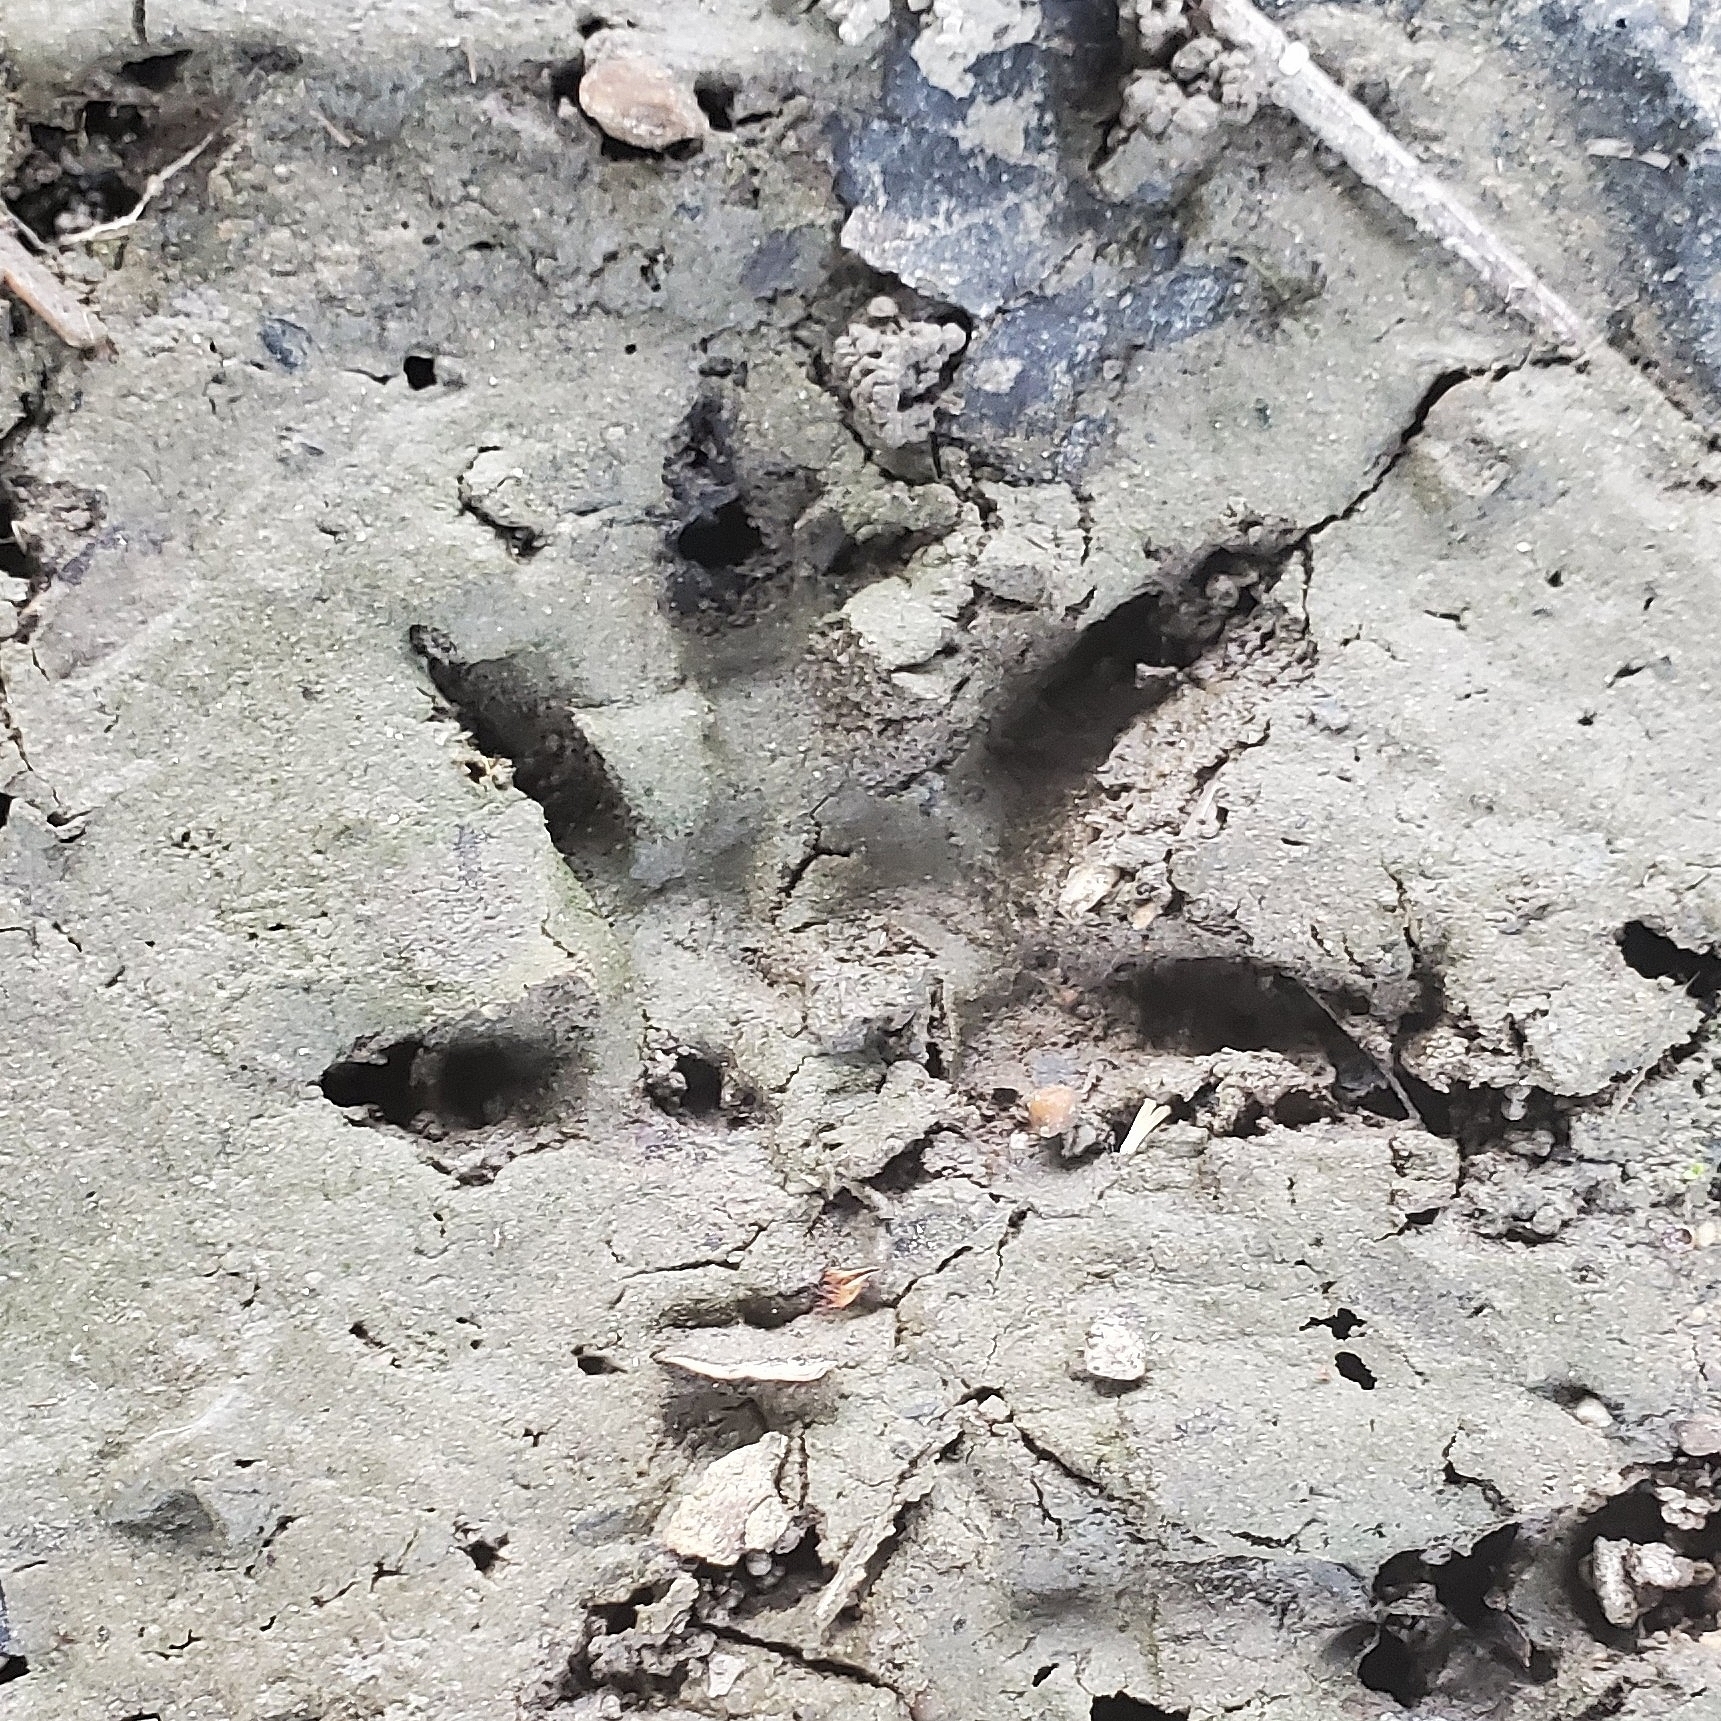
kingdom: Animalia
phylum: Chordata
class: Mammalia
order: Didelphimorphia
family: Didelphidae
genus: Didelphis
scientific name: Didelphis virginiana
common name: Virginia opossum
